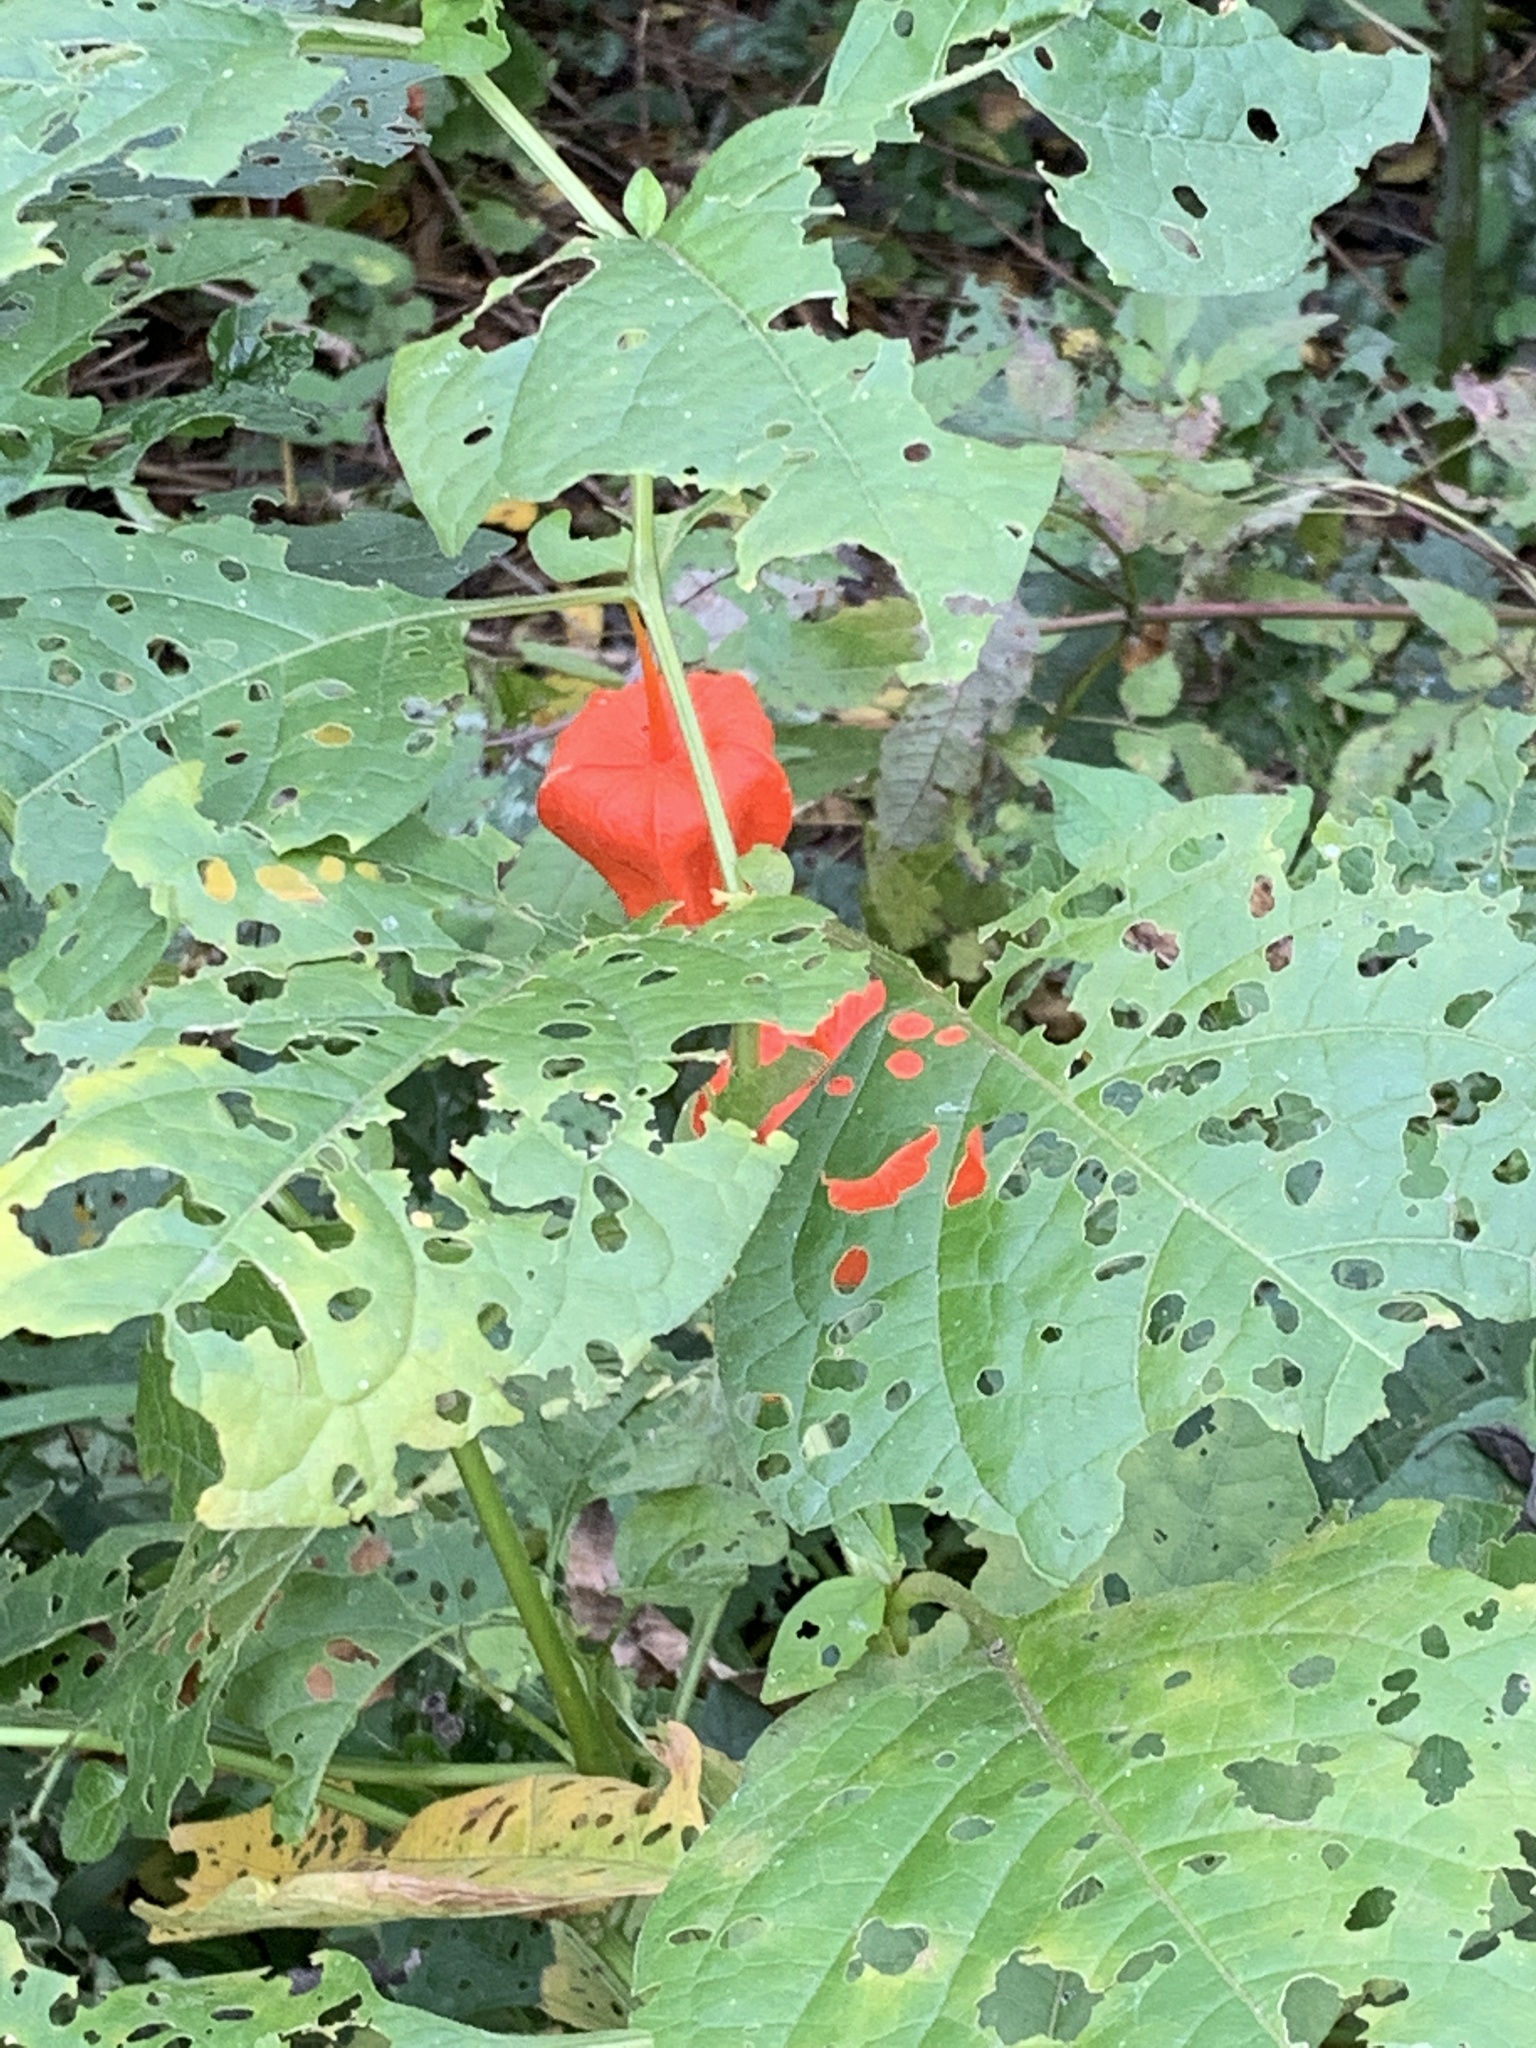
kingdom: Plantae
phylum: Tracheophyta
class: Magnoliopsida
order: Solanales
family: Solanaceae
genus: Alkekengi
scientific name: Alkekengi officinarum
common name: Japanese-lantern
